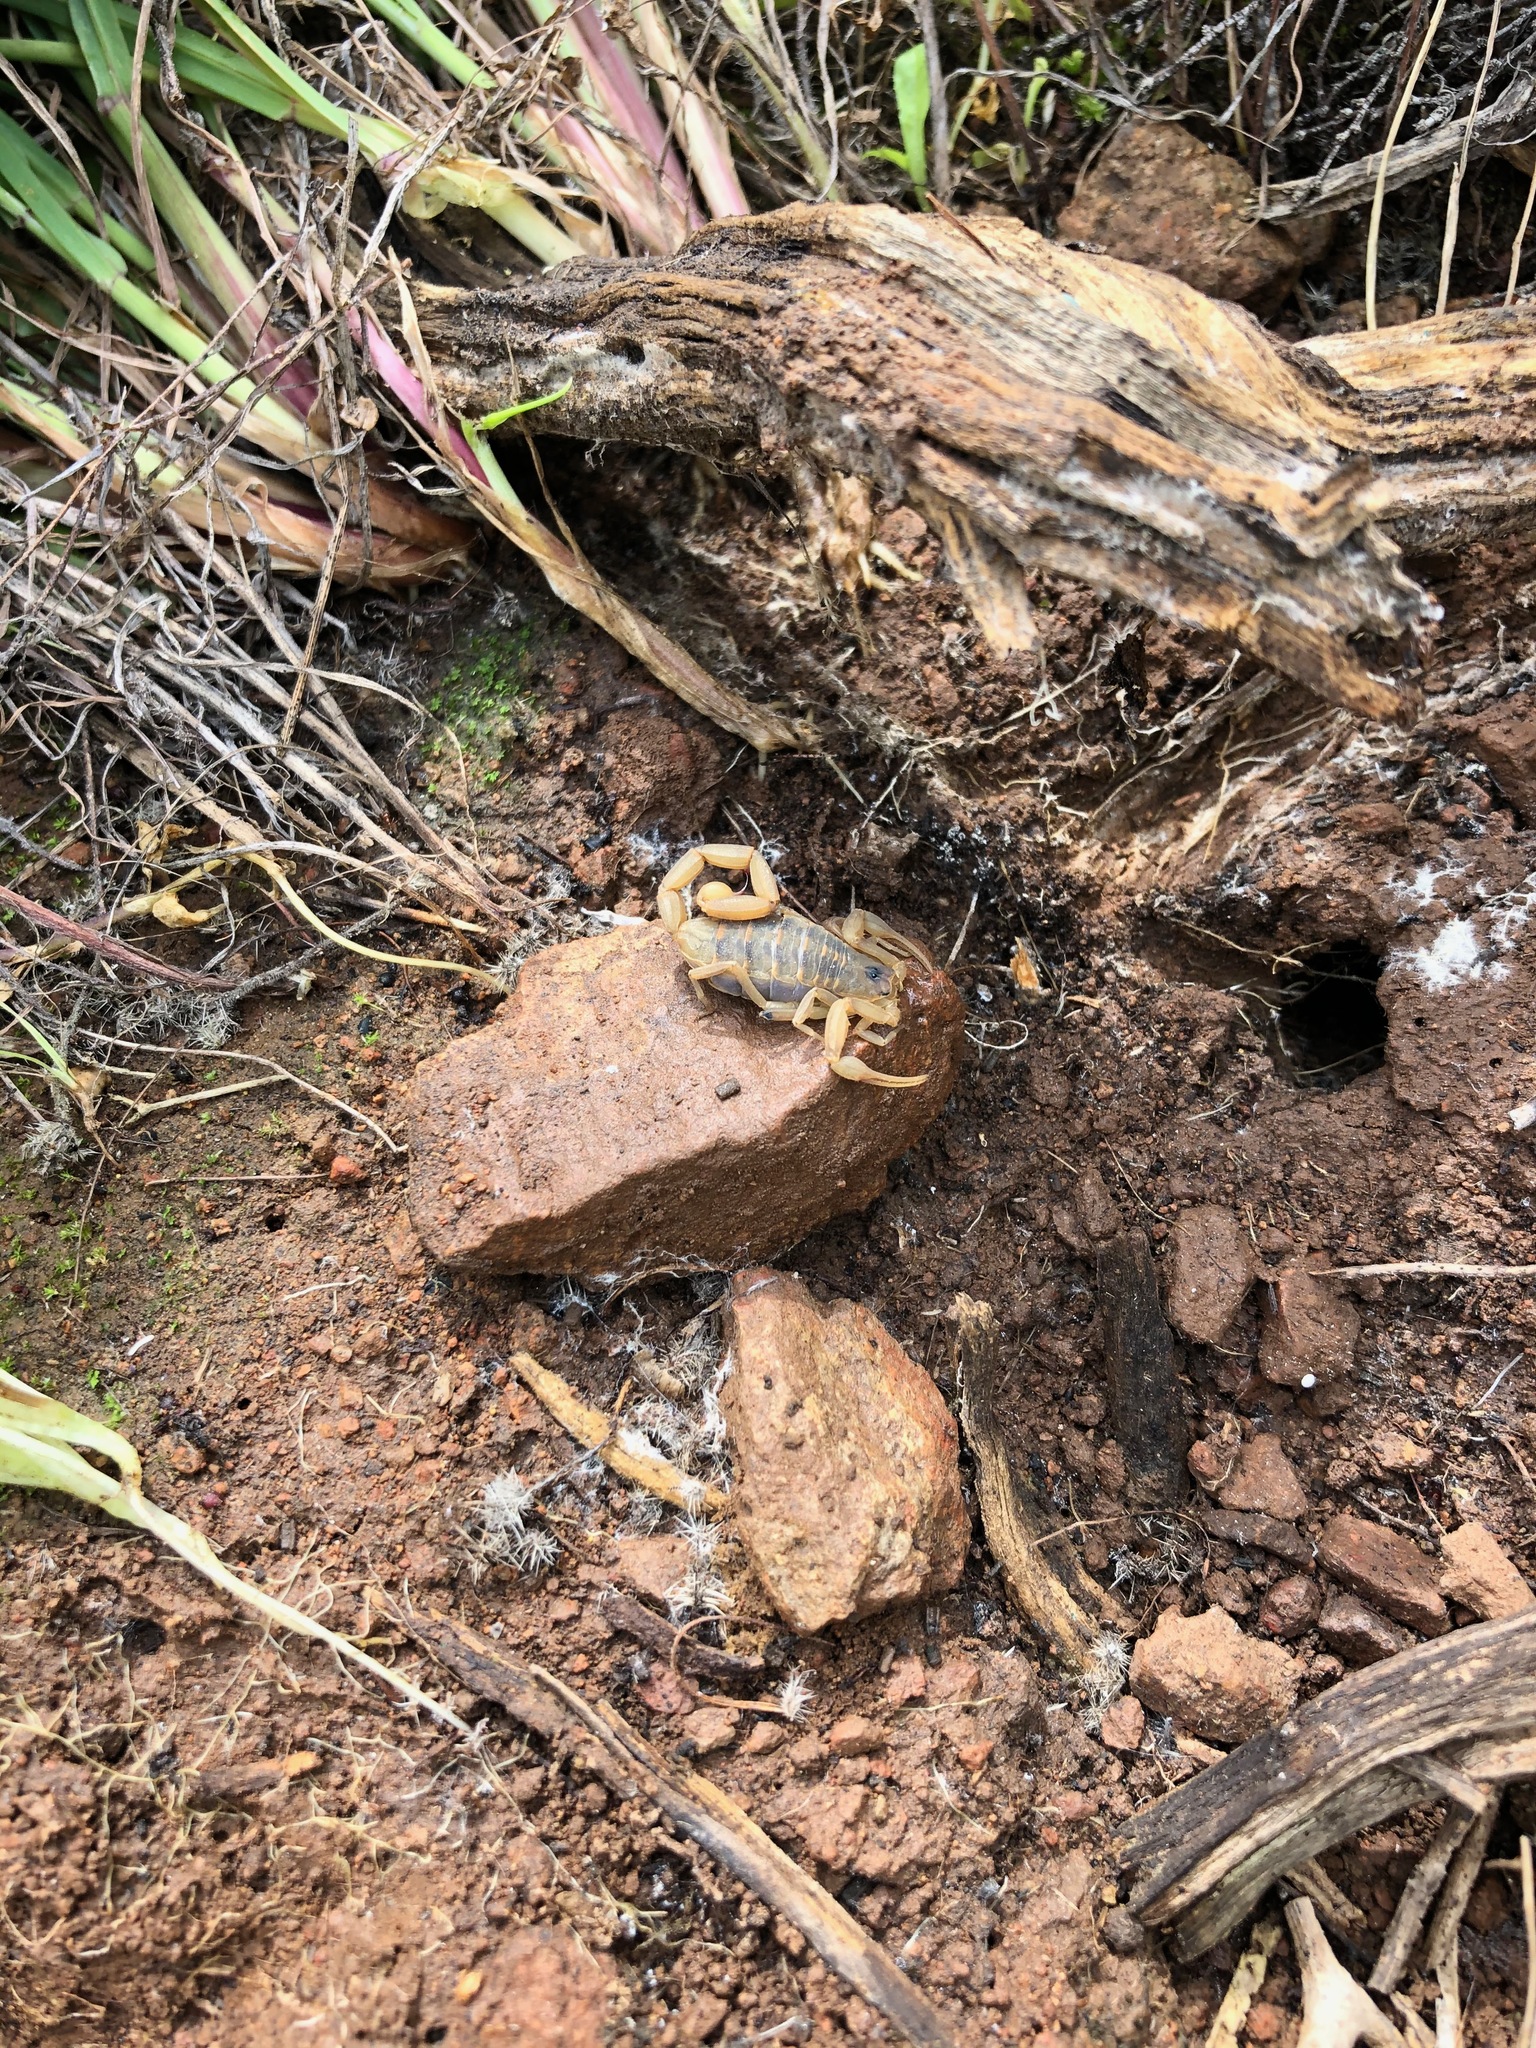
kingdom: Animalia
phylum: Arthropoda
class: Arachnida
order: Scorpiones
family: Buthidae
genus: Centruroides
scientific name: Centruroides exilicauda
